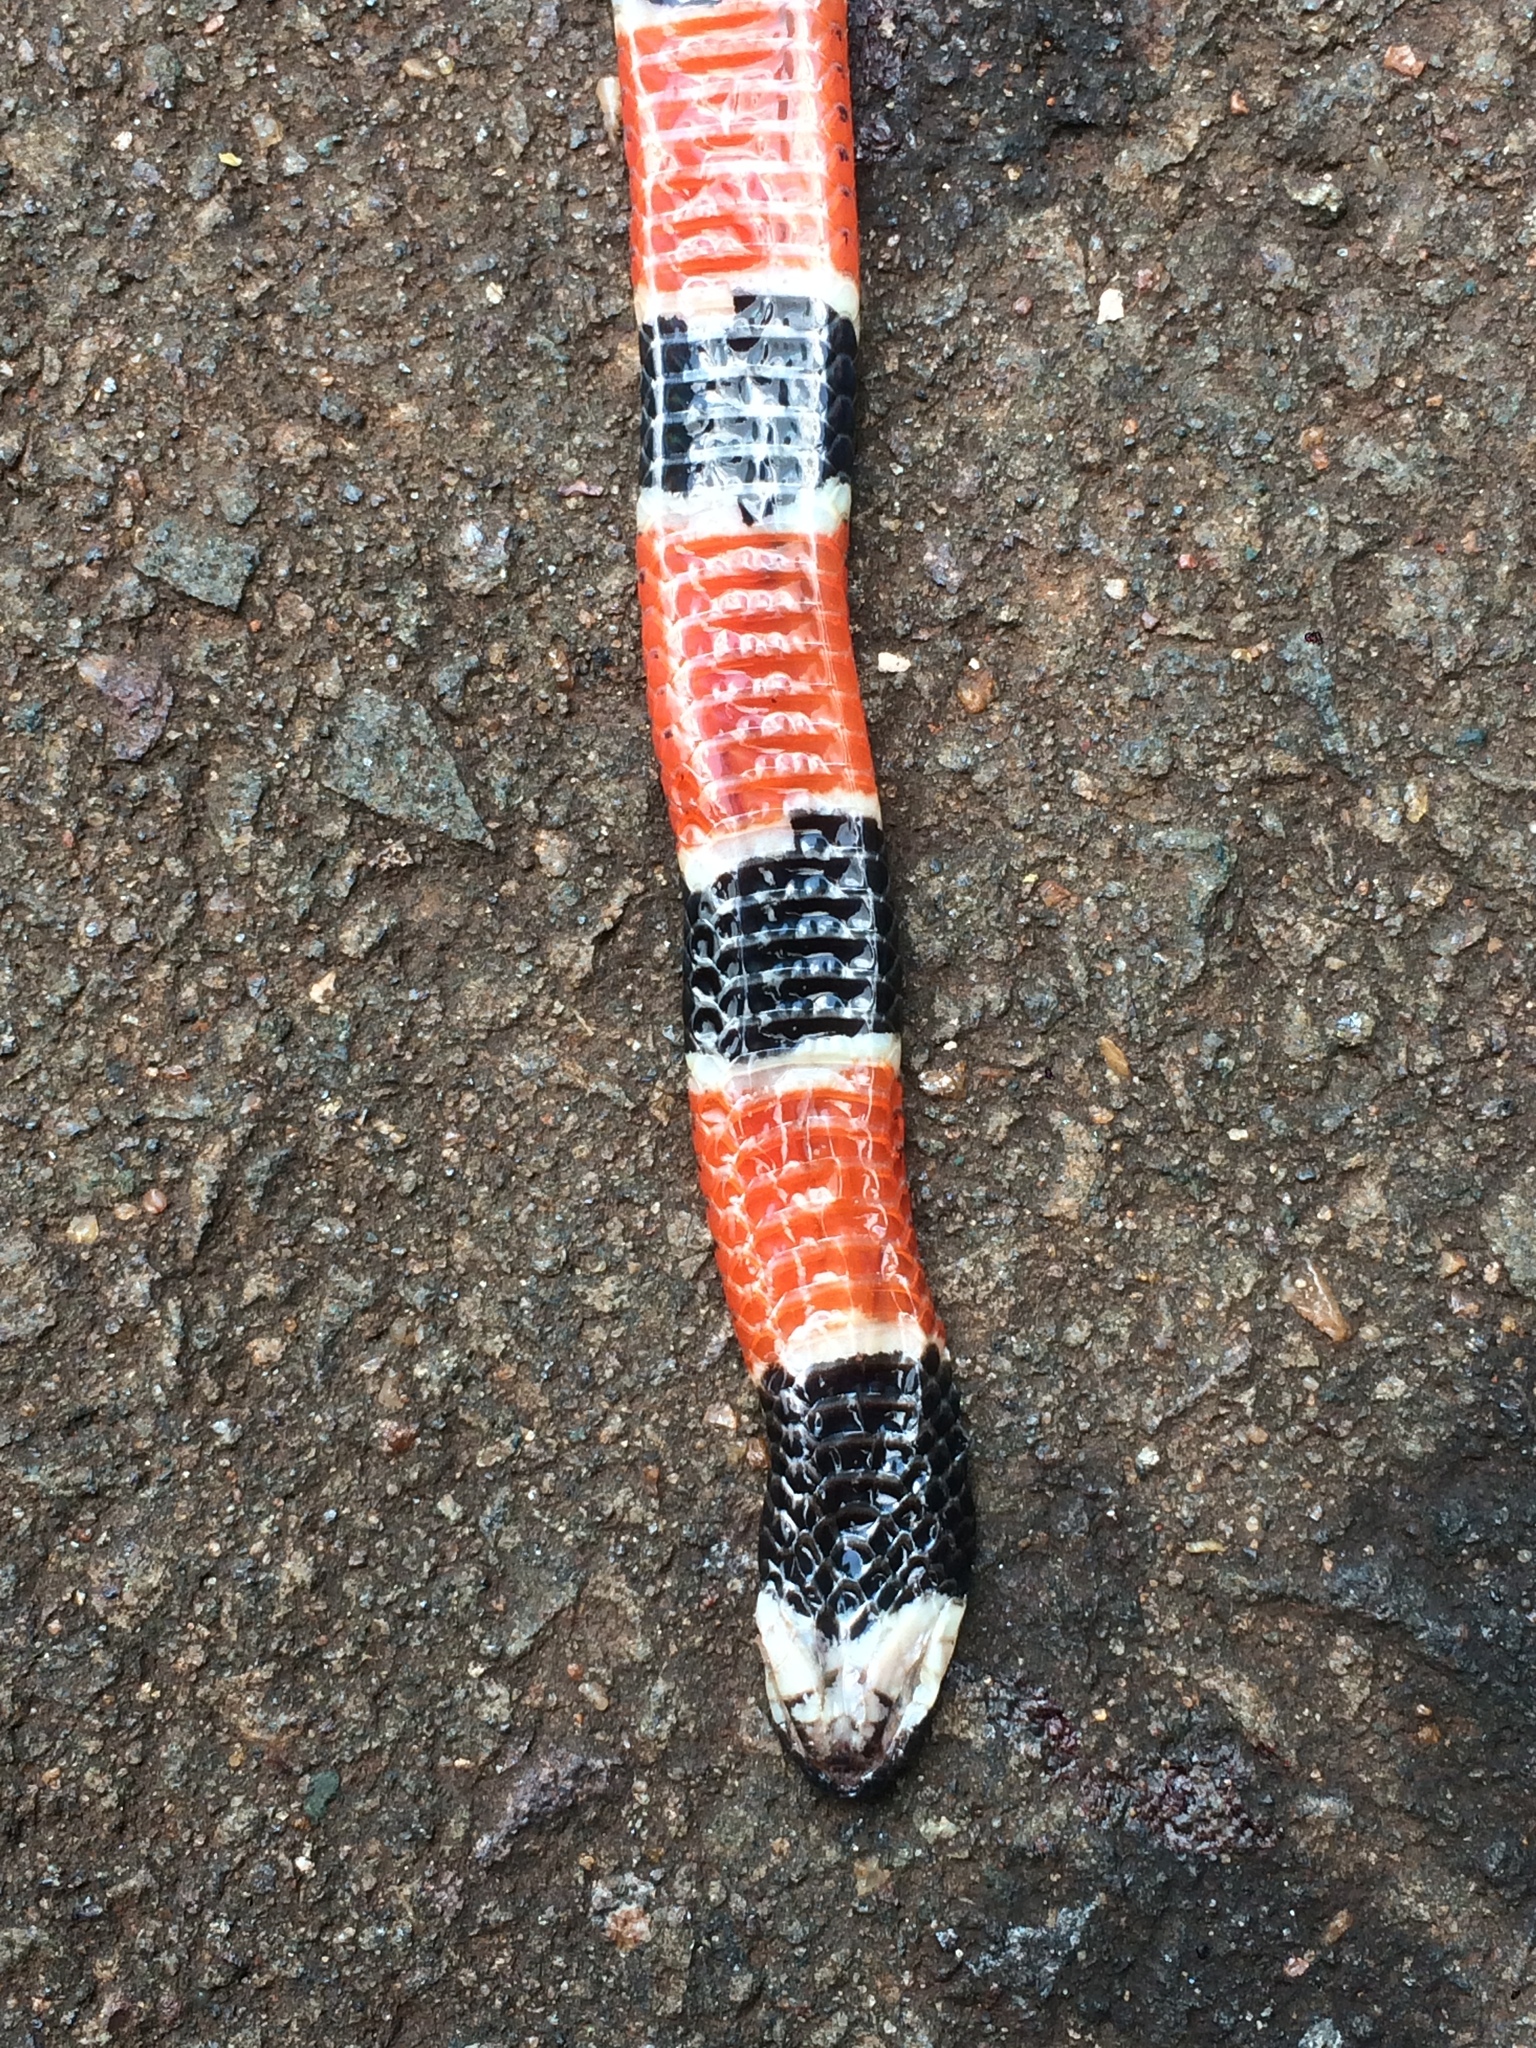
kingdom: Animalia
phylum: Chordata
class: Squamata
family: Elapidae
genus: Micrurus
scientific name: Micrurus corallinus
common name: Painted coral snake
